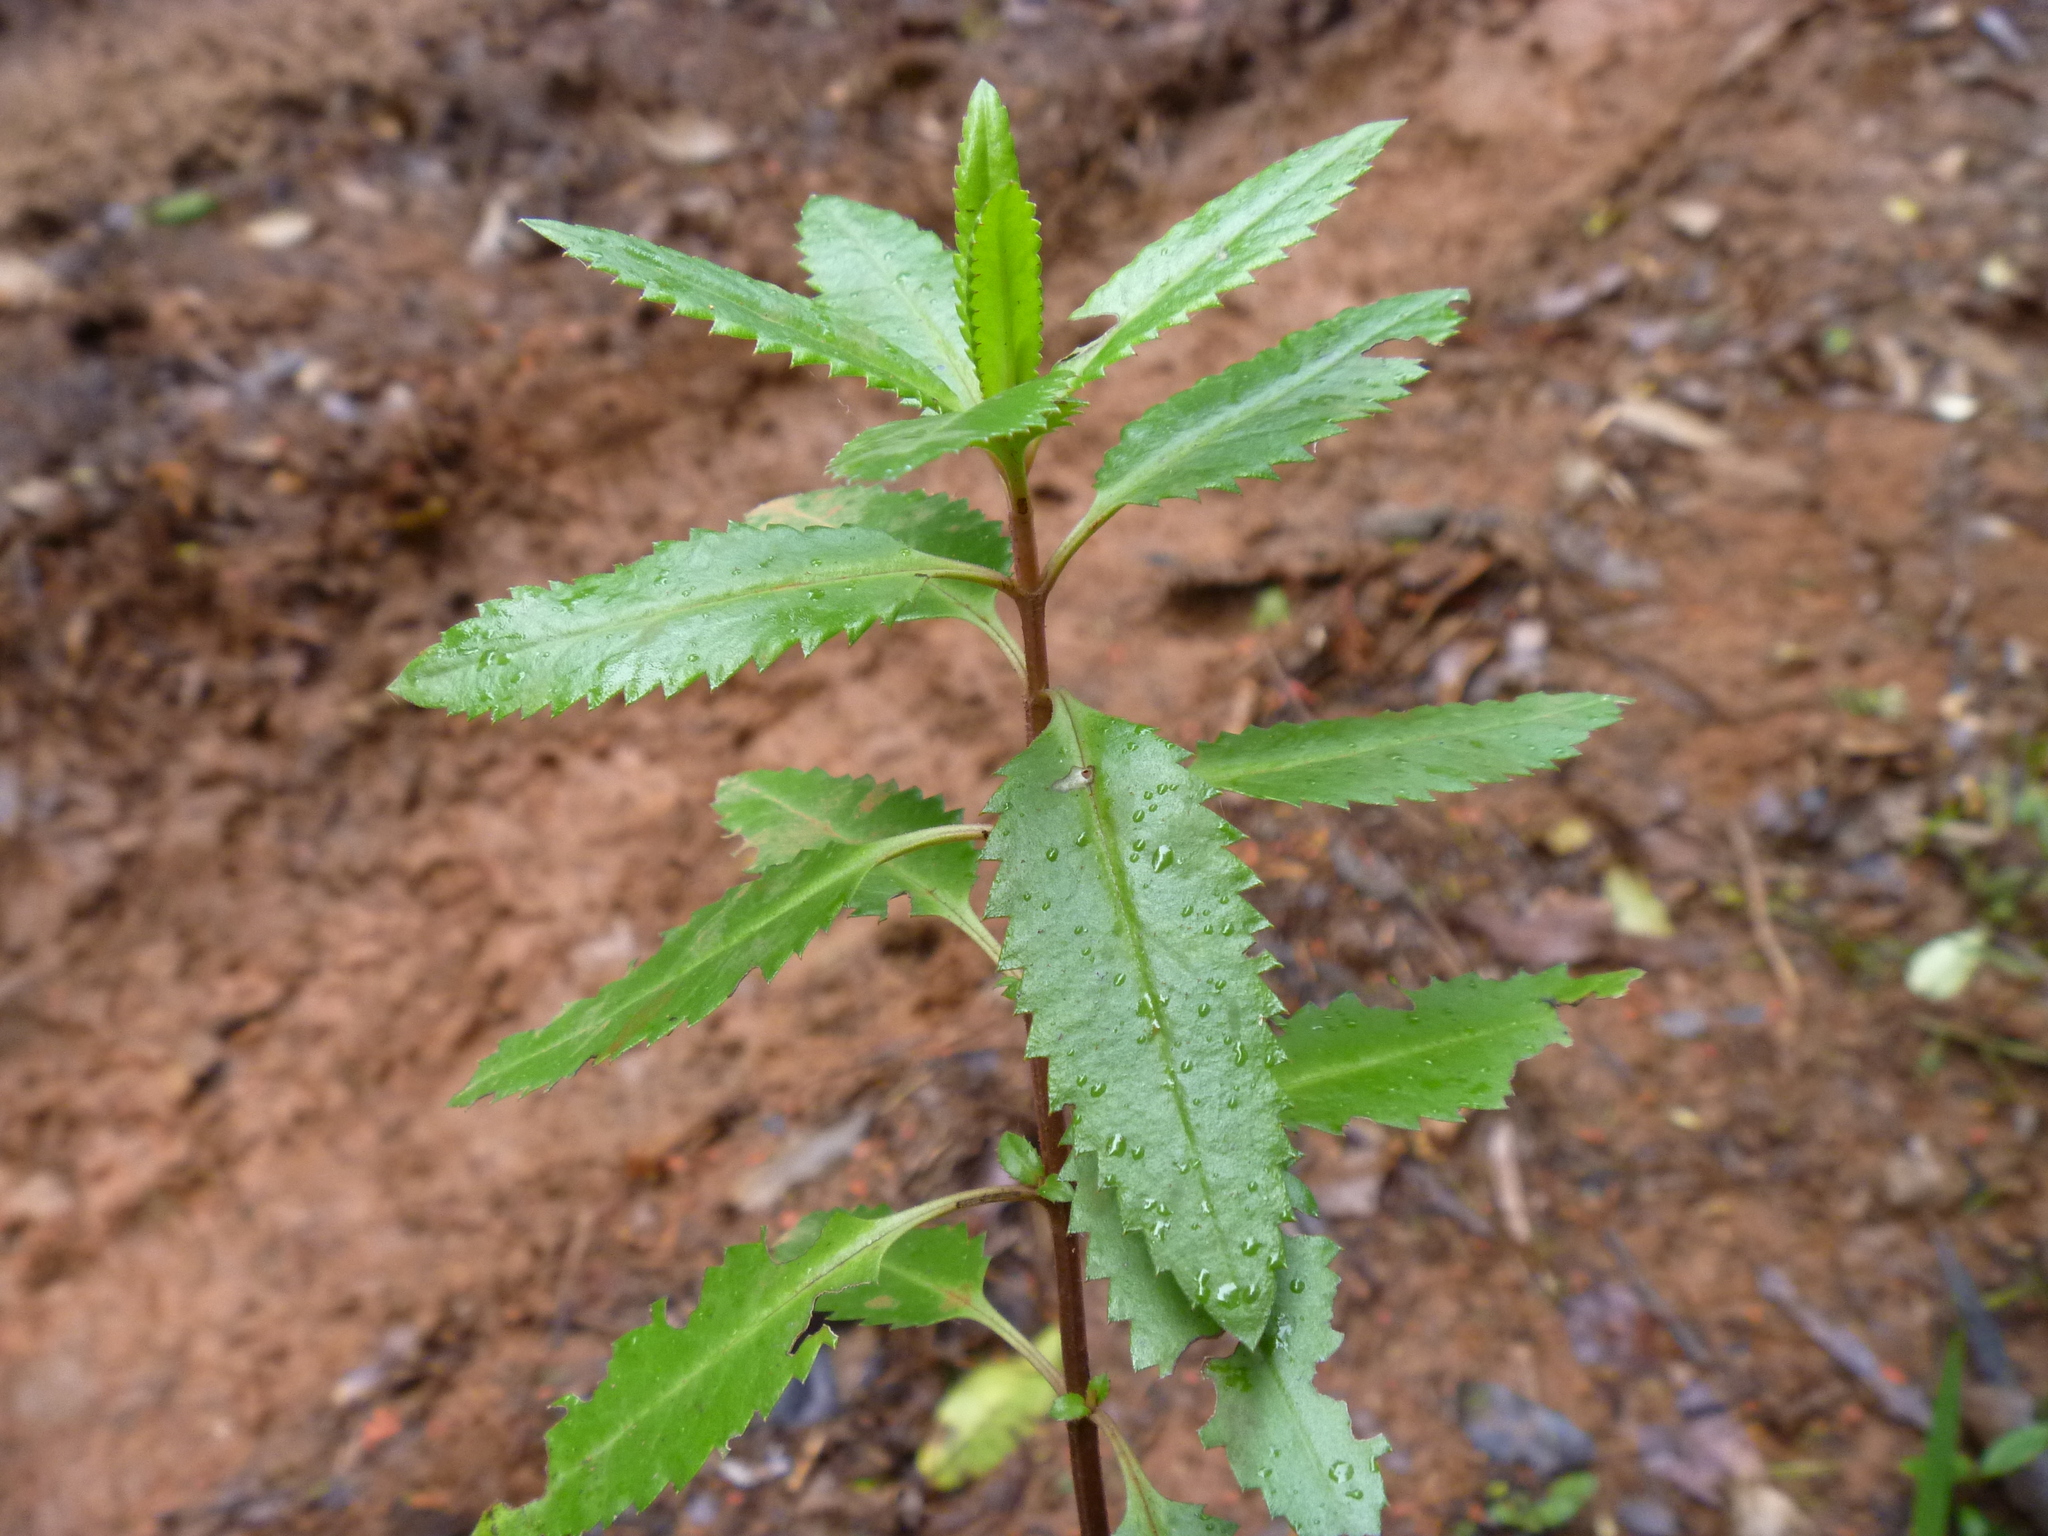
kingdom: Plantae
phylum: Tracheophyta
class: Magnoliopsida
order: Saxifragales
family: Haloragaceae
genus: Haloragis
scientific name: Haloragis erecta
